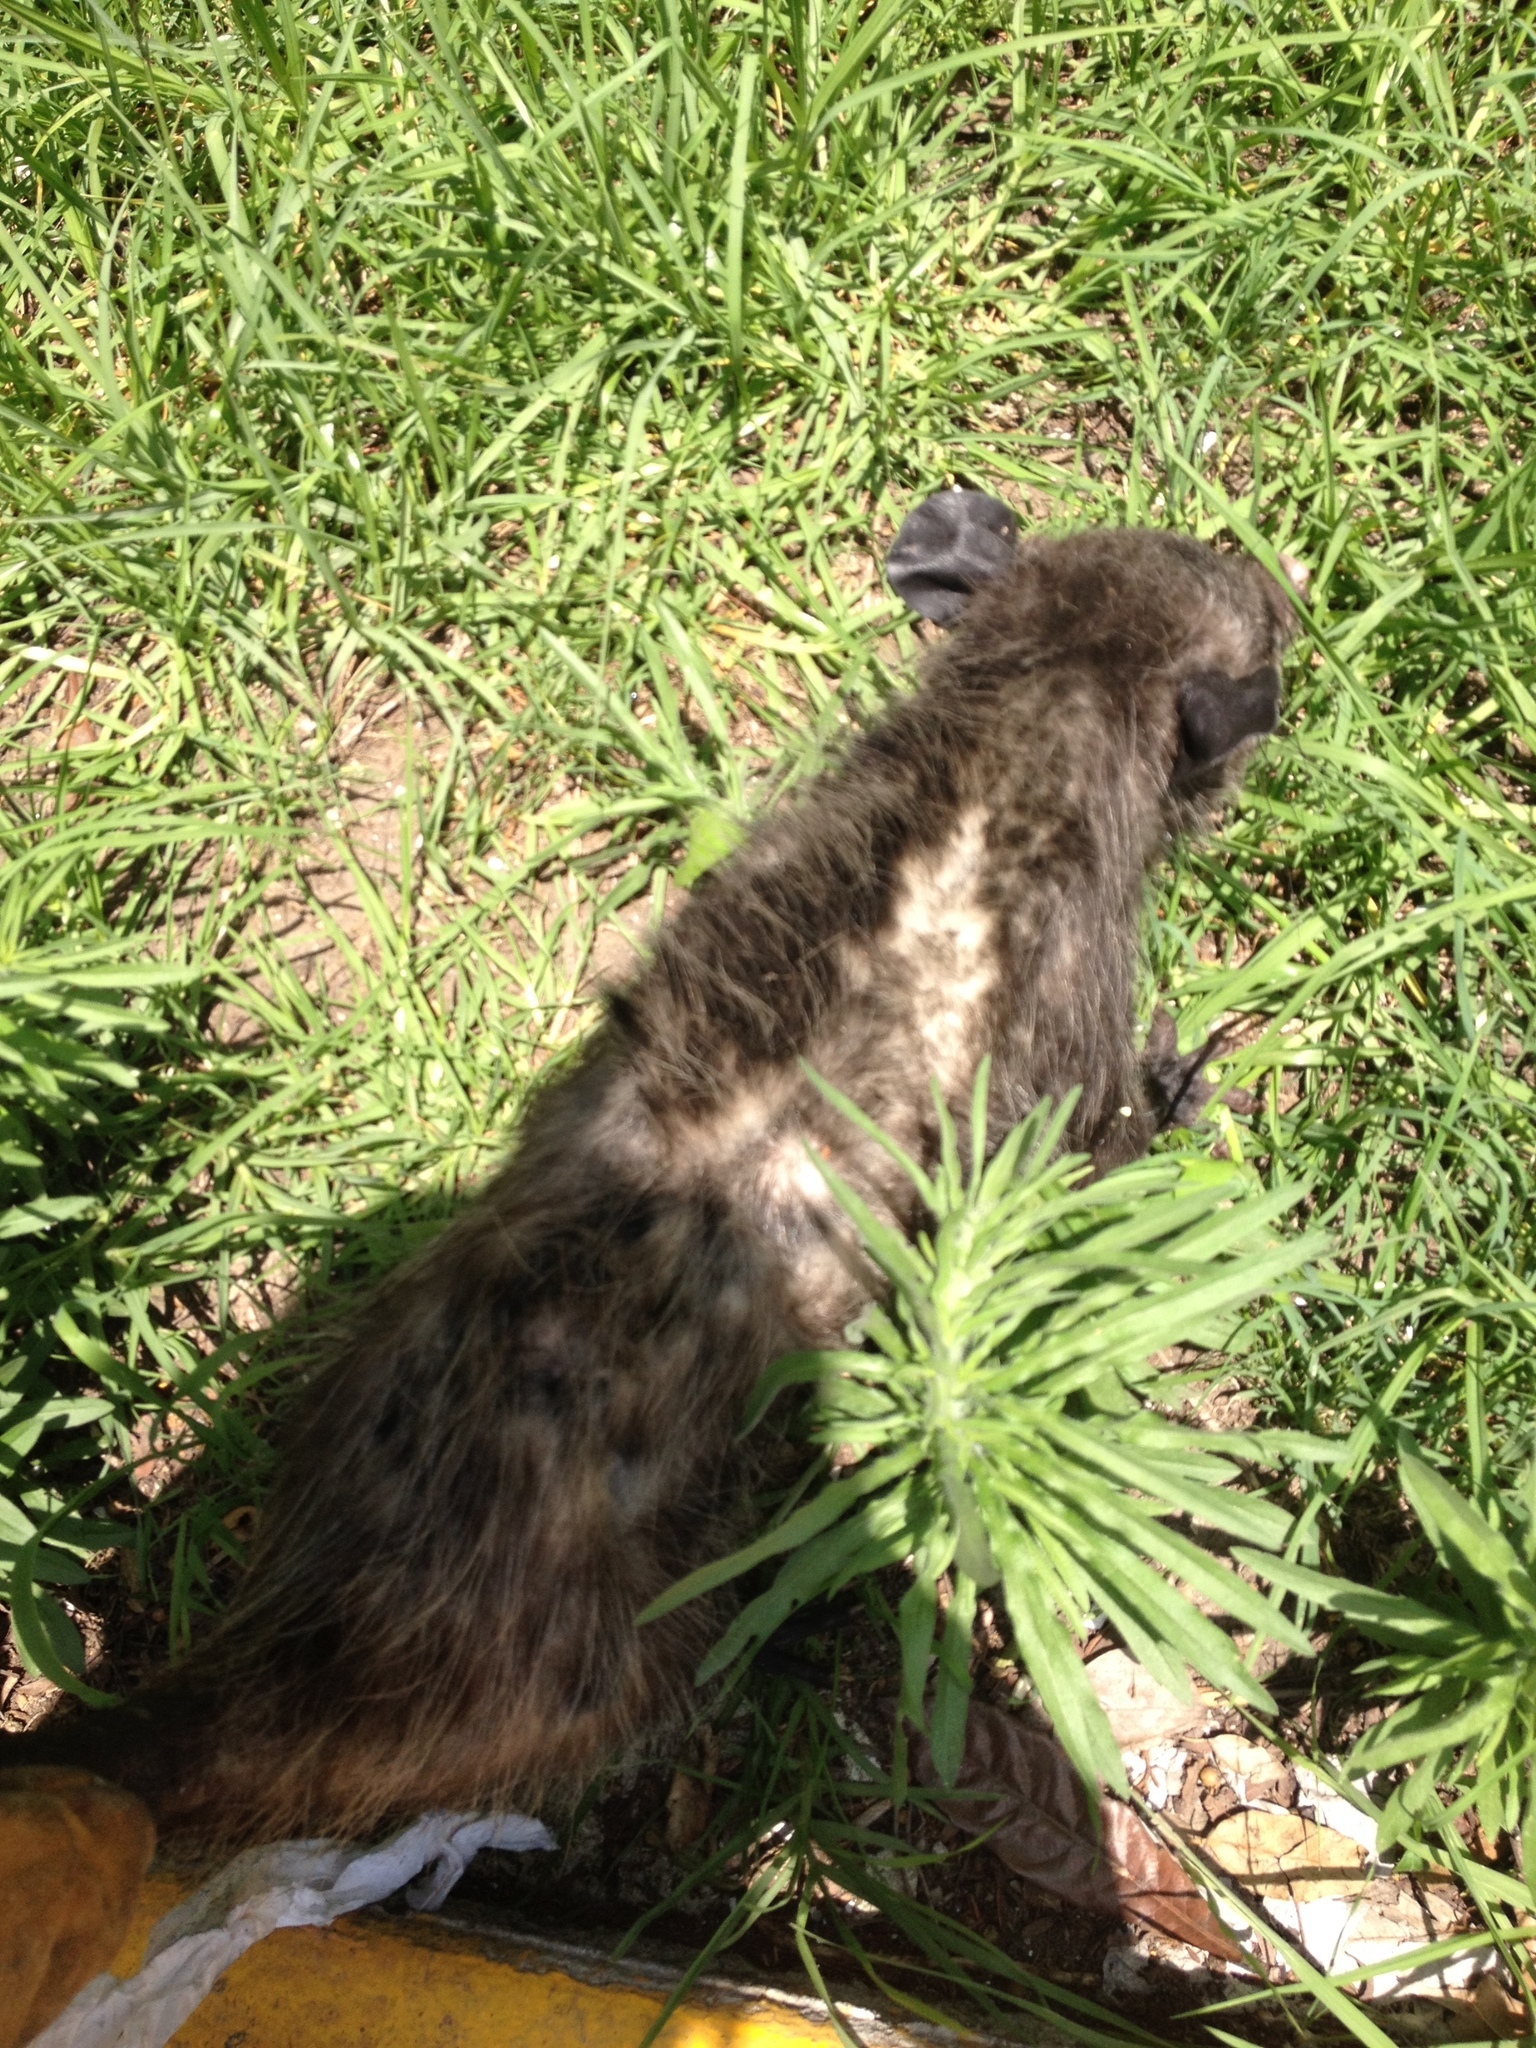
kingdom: Animalia
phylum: Chordata
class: Mammalia
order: Didelphimorphia
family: Didelphidae
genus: Didelphis
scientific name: Didelphis virginiana
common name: Virginia opossum
